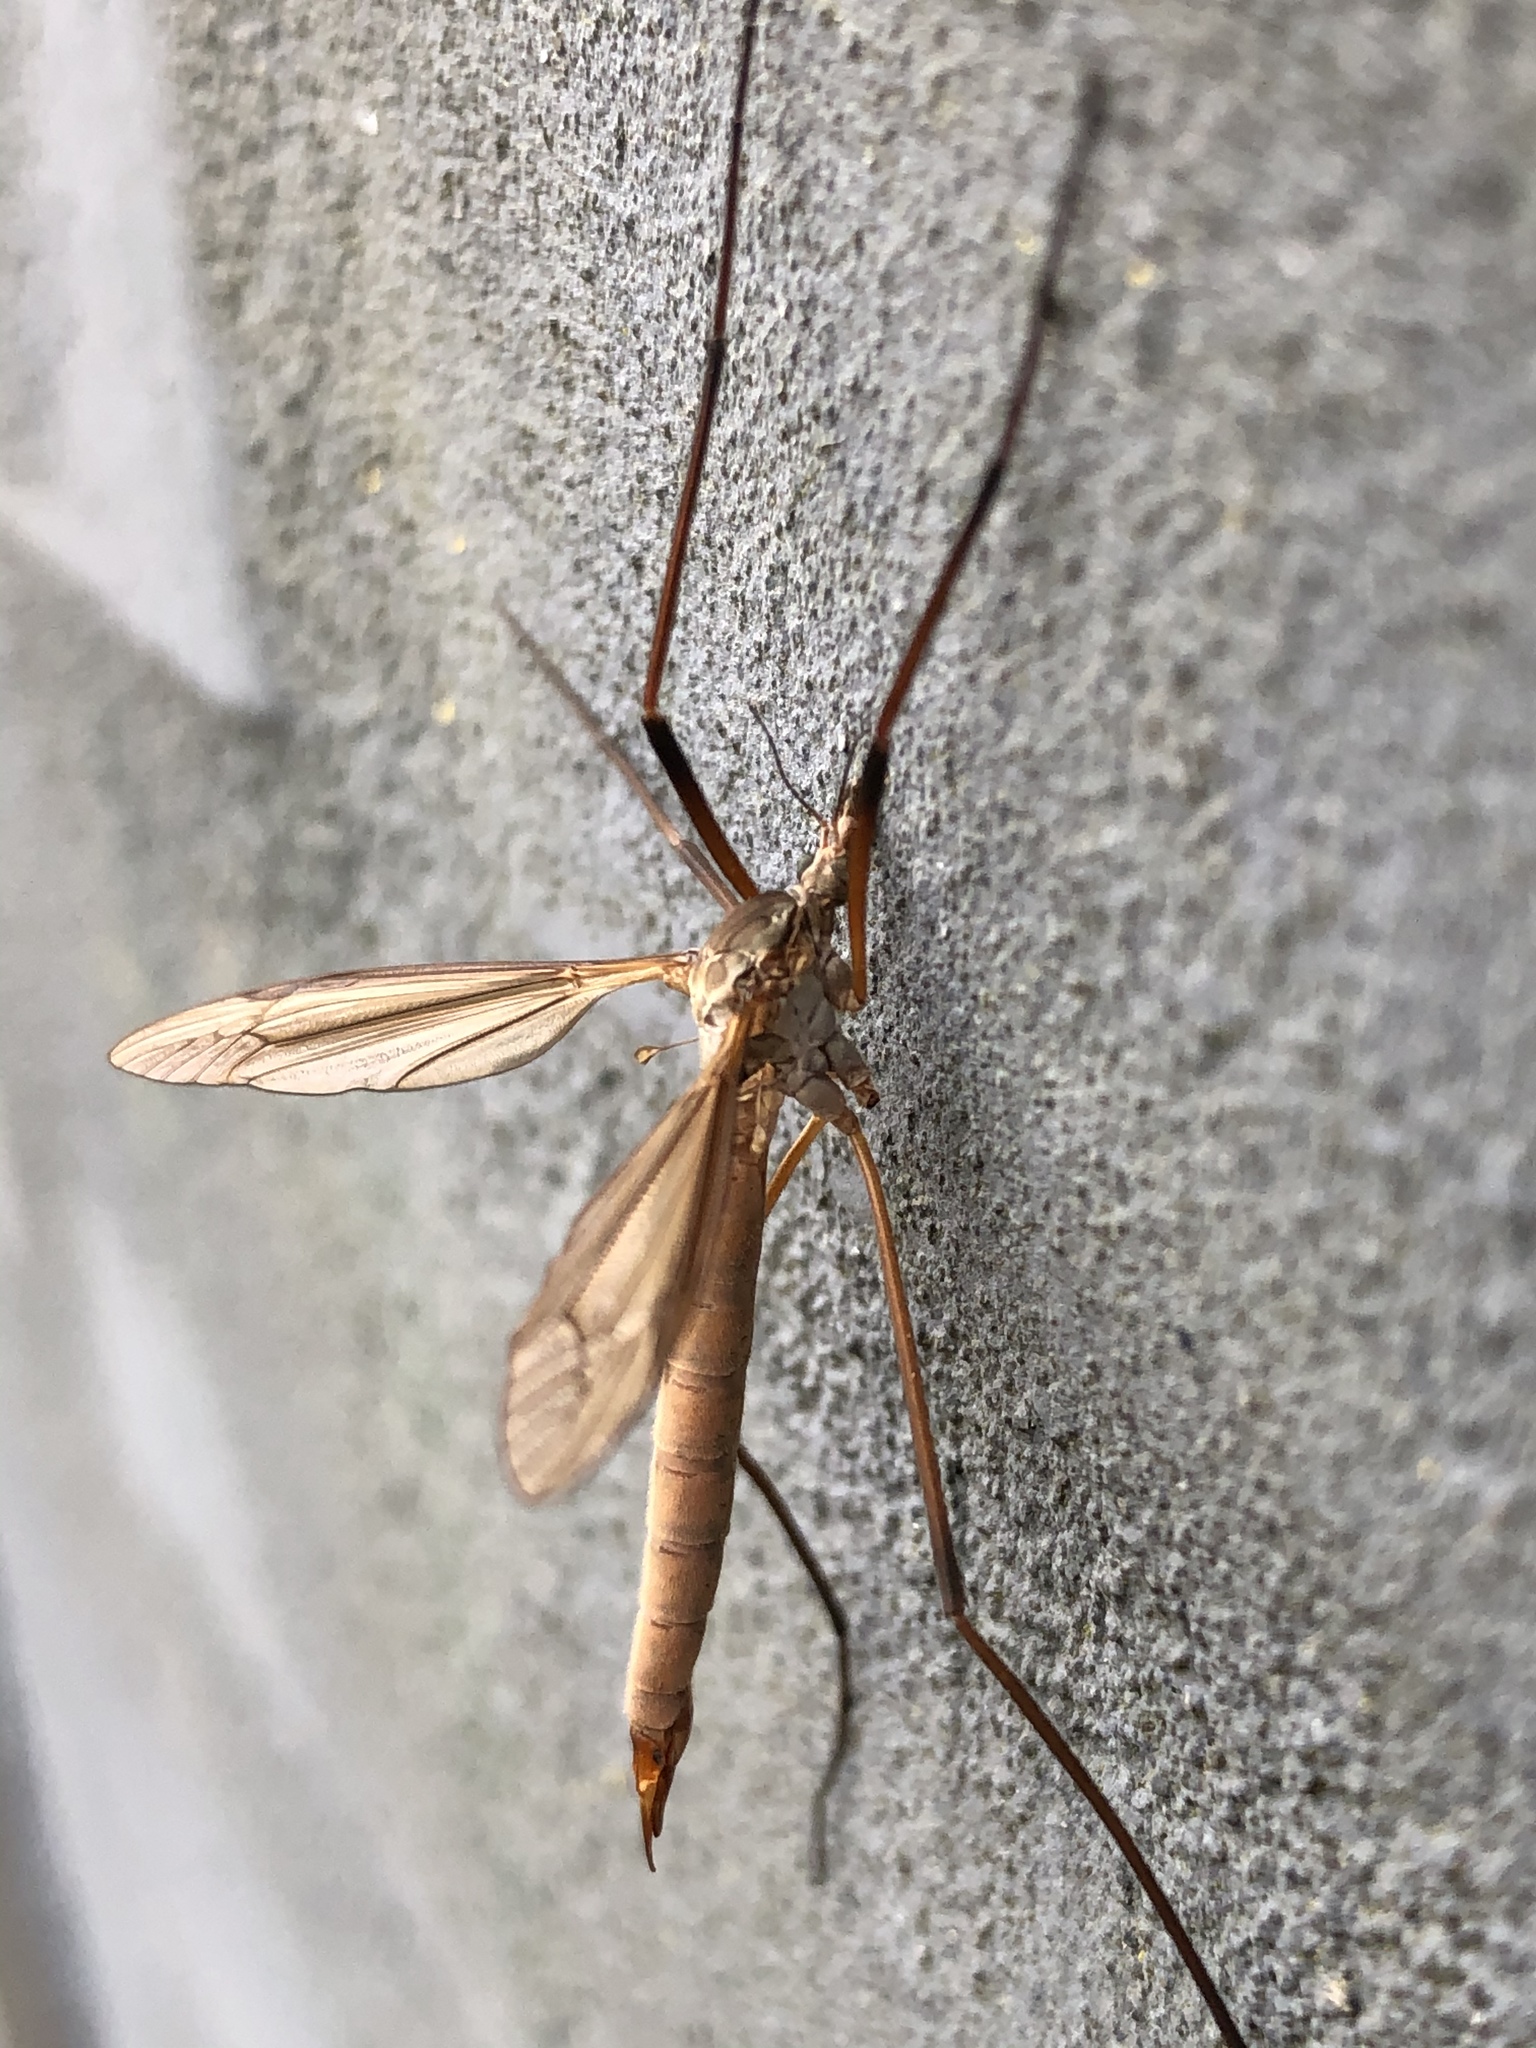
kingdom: Animalia
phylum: Arthropoda
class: Insecta
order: Diptera
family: Tipulidae
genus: Tipula
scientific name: Tipula paludosa
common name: European cranefly
